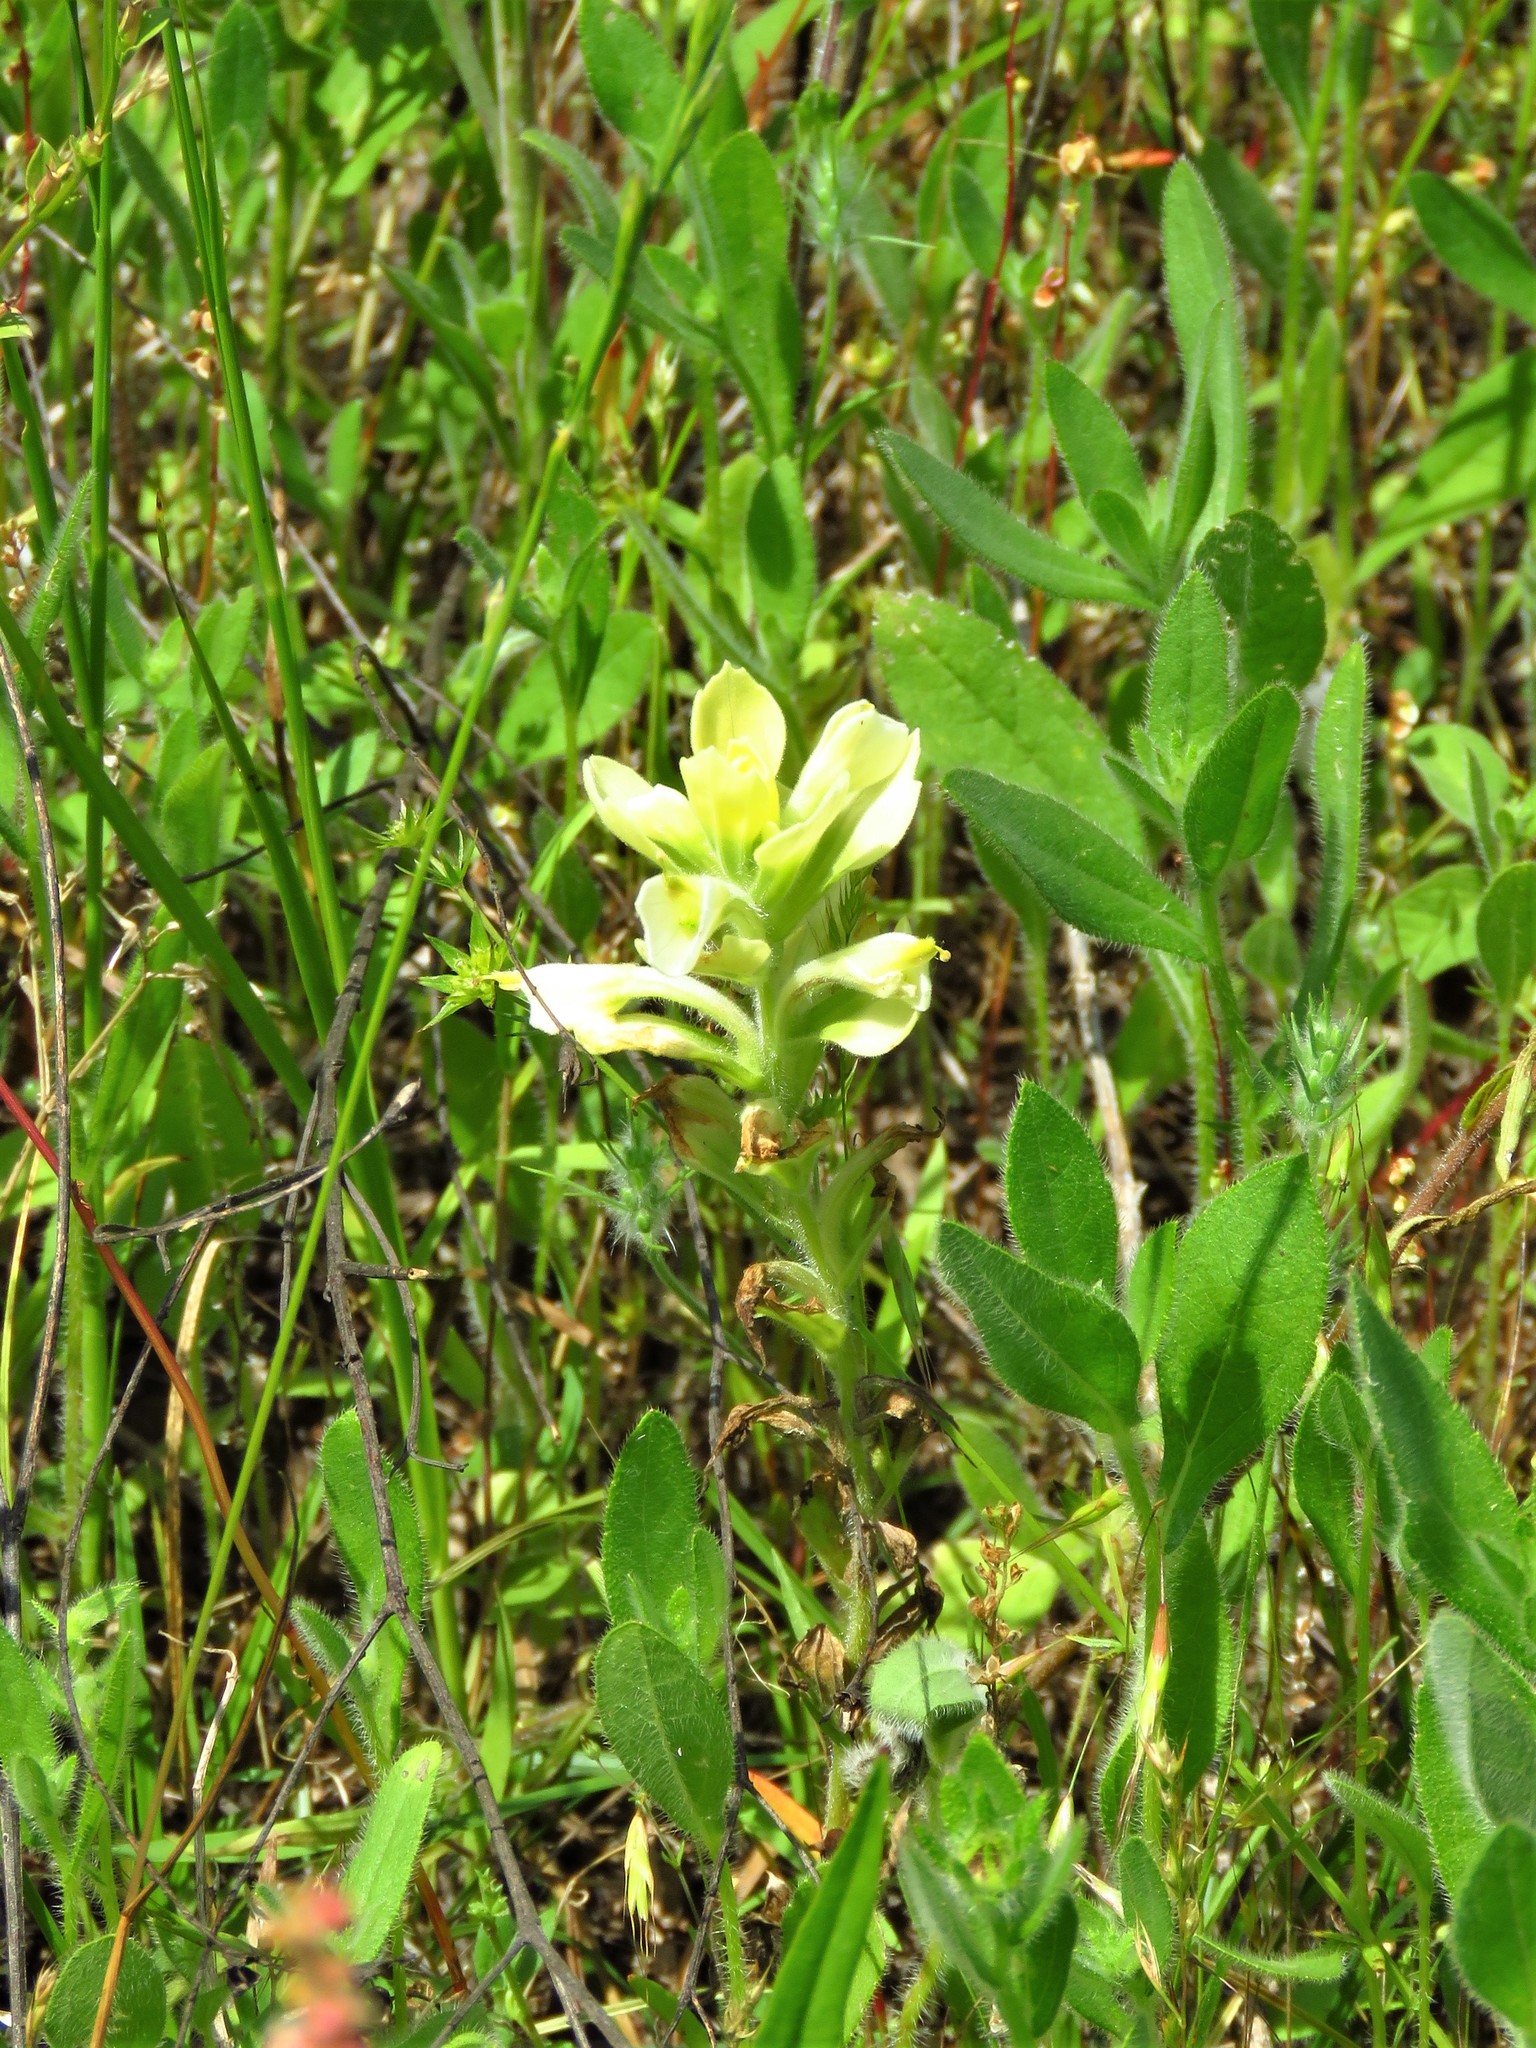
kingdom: Plantae
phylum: Tracheophyta
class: Magnoliopsida
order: Lamiales
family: Orobanchaceae
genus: Castilleja
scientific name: Castilleja indivisa
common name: Texas paintbrush
